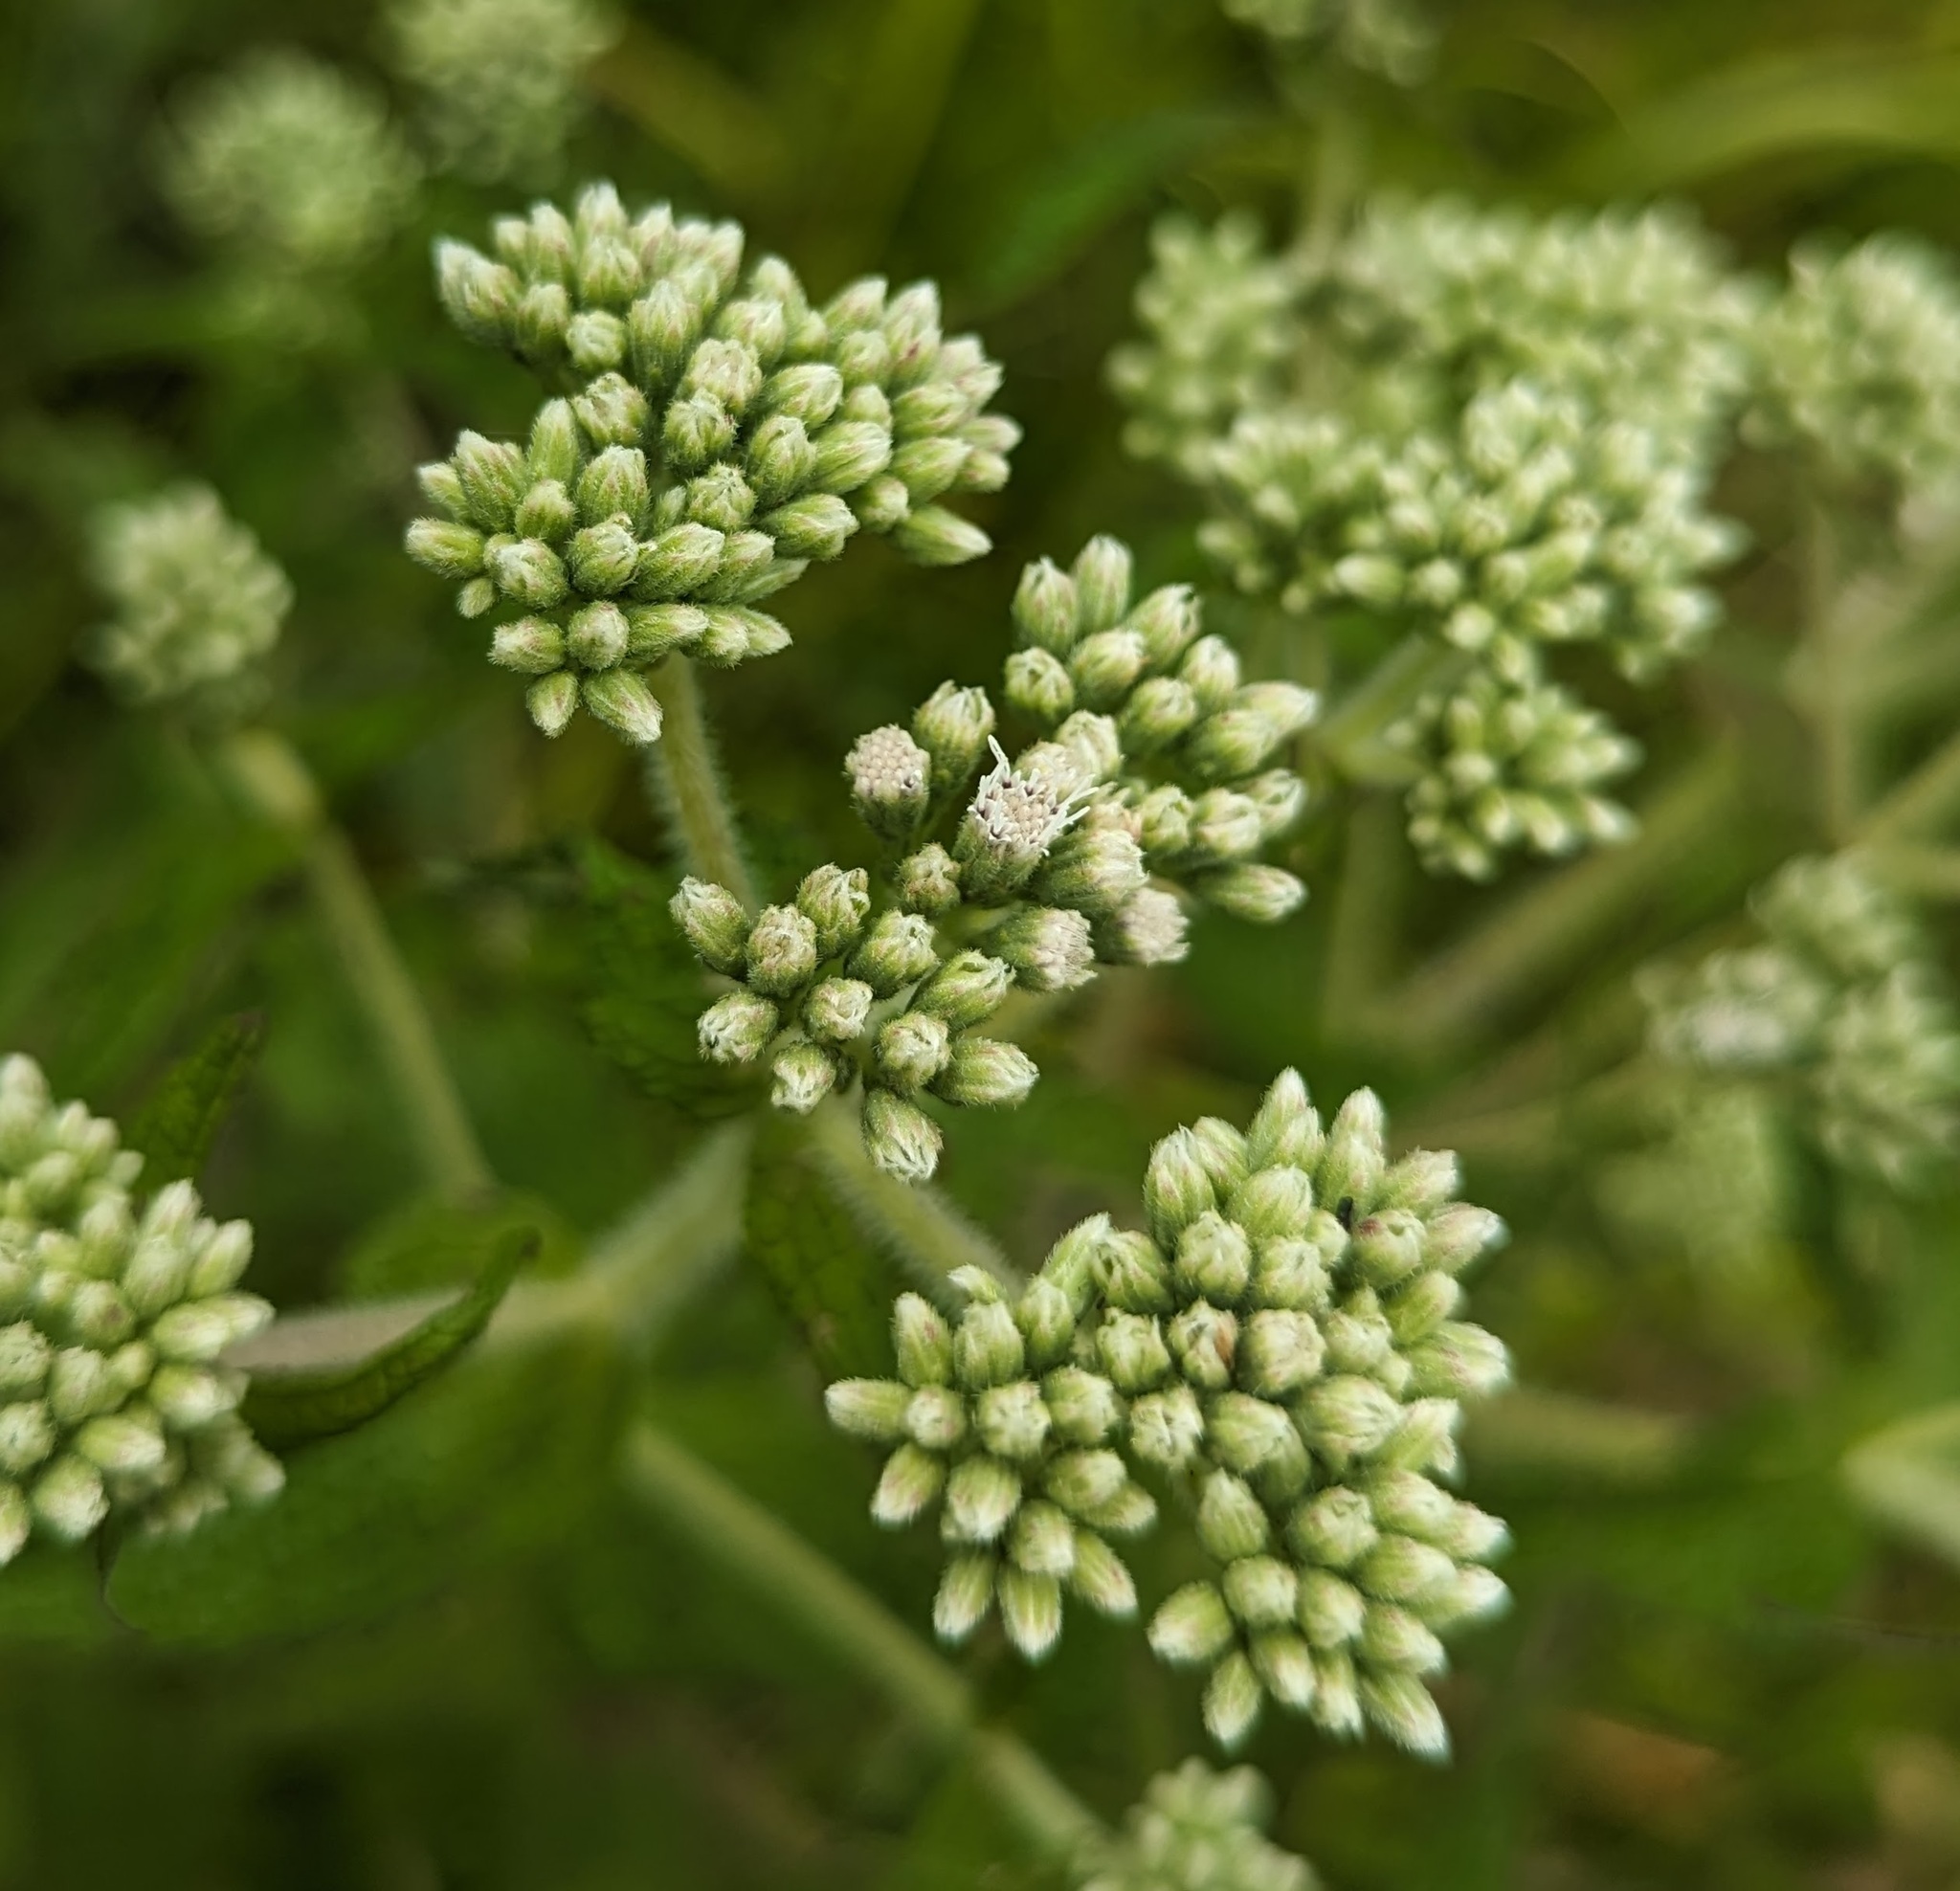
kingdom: Plantae
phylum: Tracheophyta
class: Magnoliopsida
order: Asterales
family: Asteraceae
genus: Eupatorium
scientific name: Eupatorium perfoliatum
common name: Boneset
